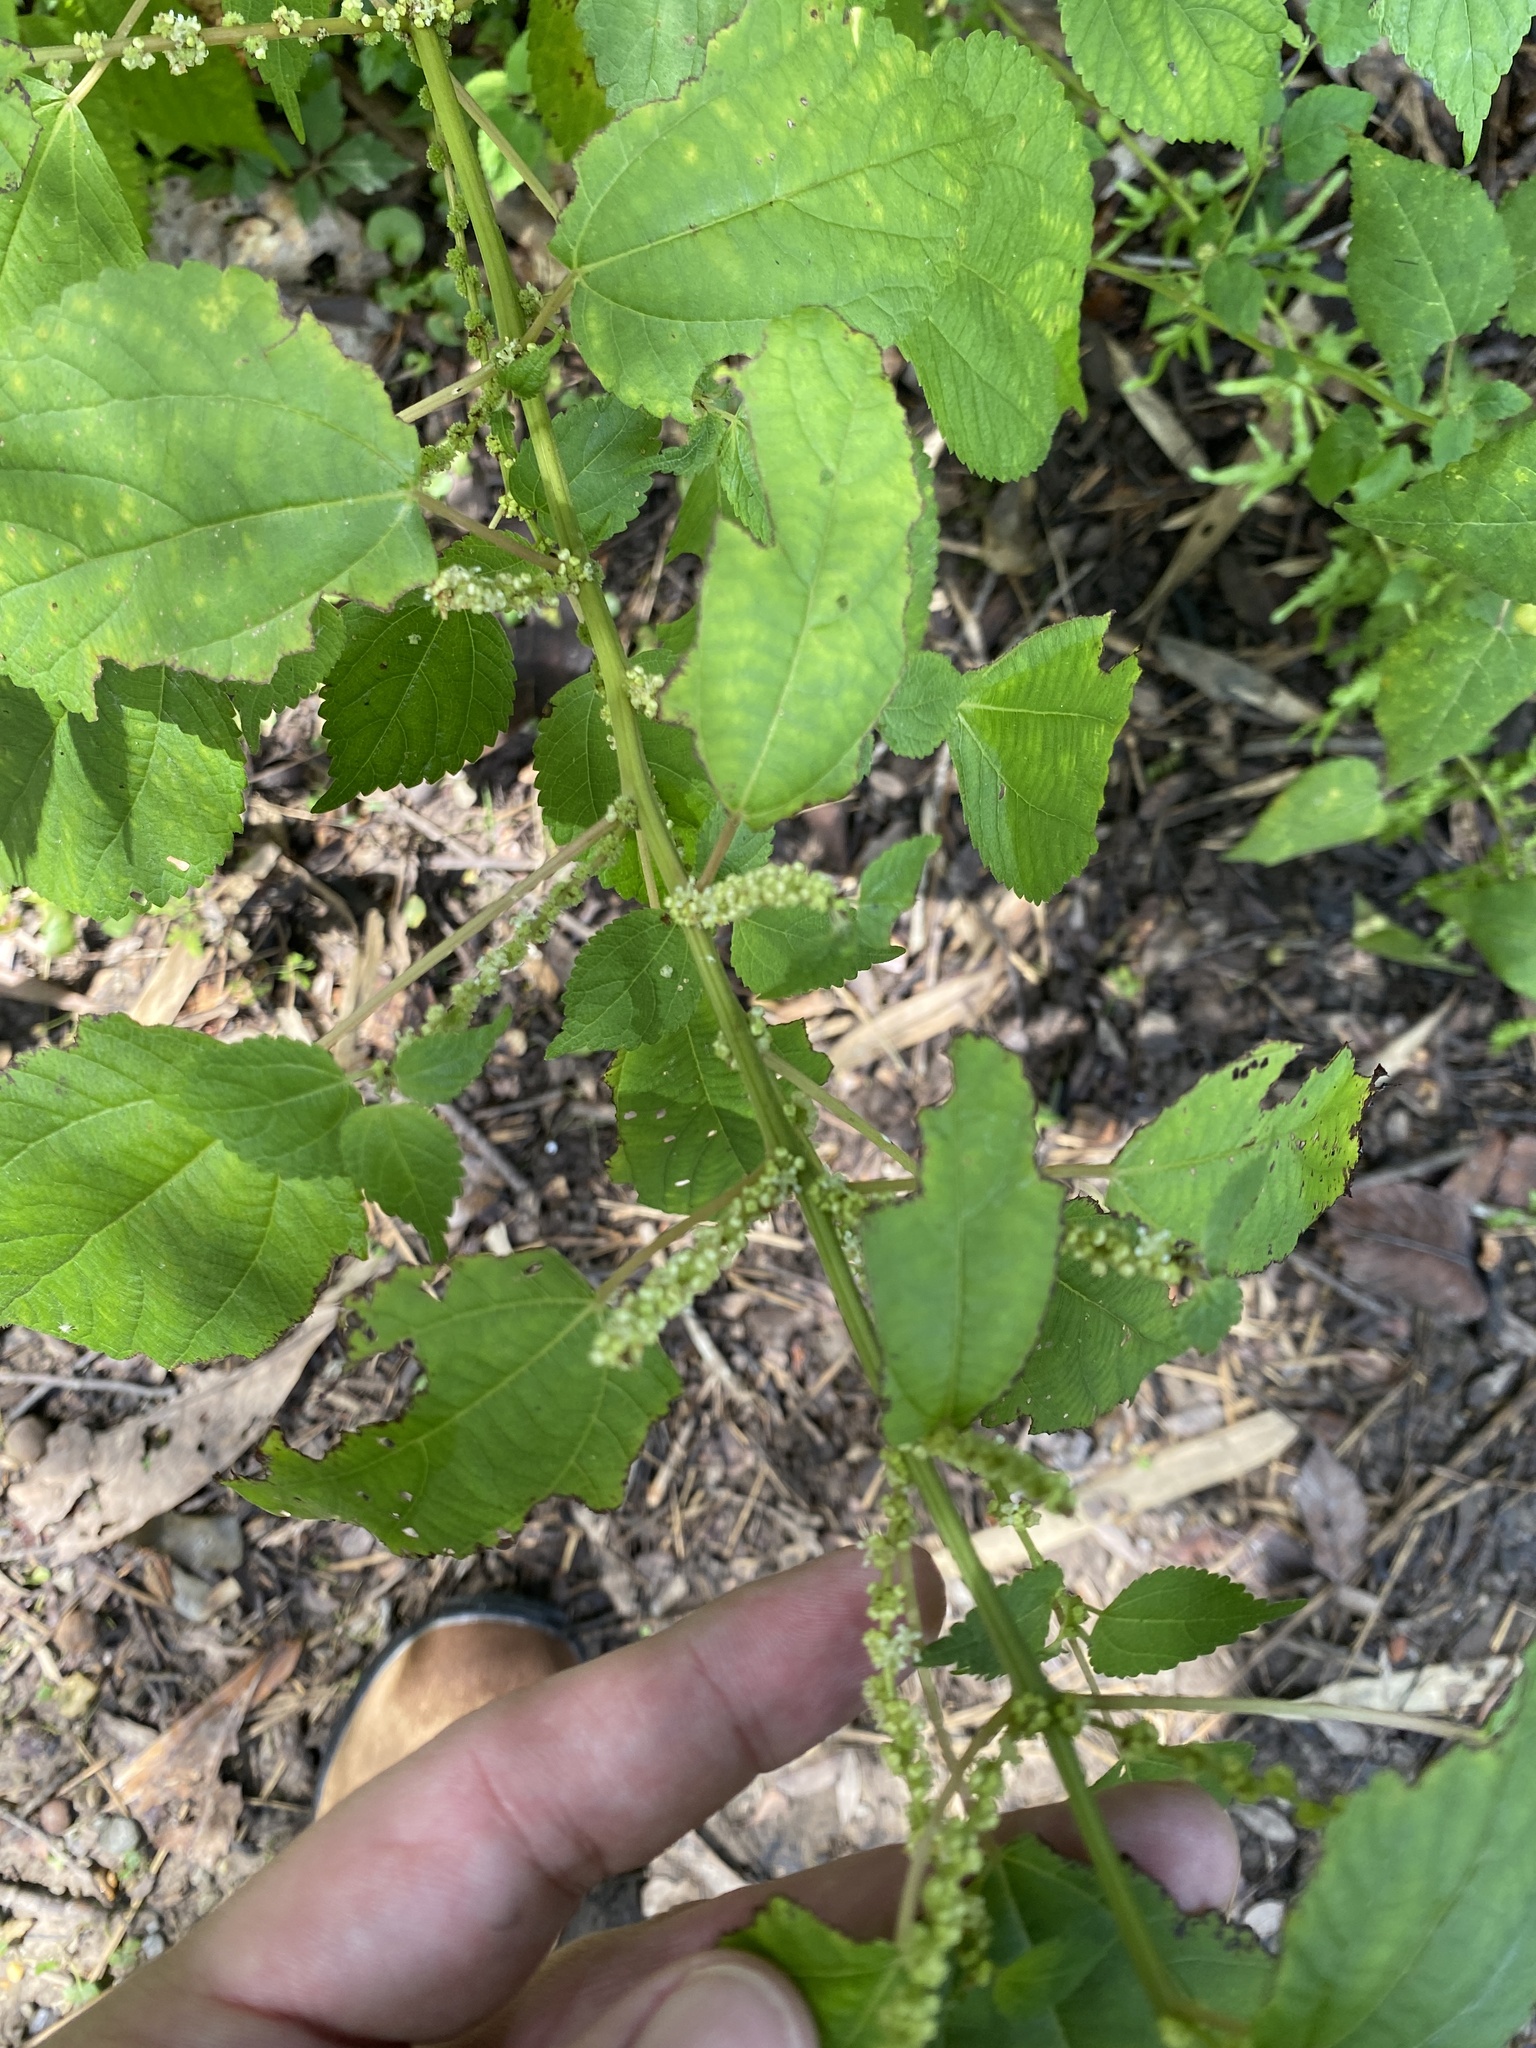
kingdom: Plantae
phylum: Tracheophyta
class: Magnoliopsida
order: Rosales
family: Urticaceae
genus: Boehmeria
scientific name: Boehmeria cylindrica
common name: Bog-hemp
